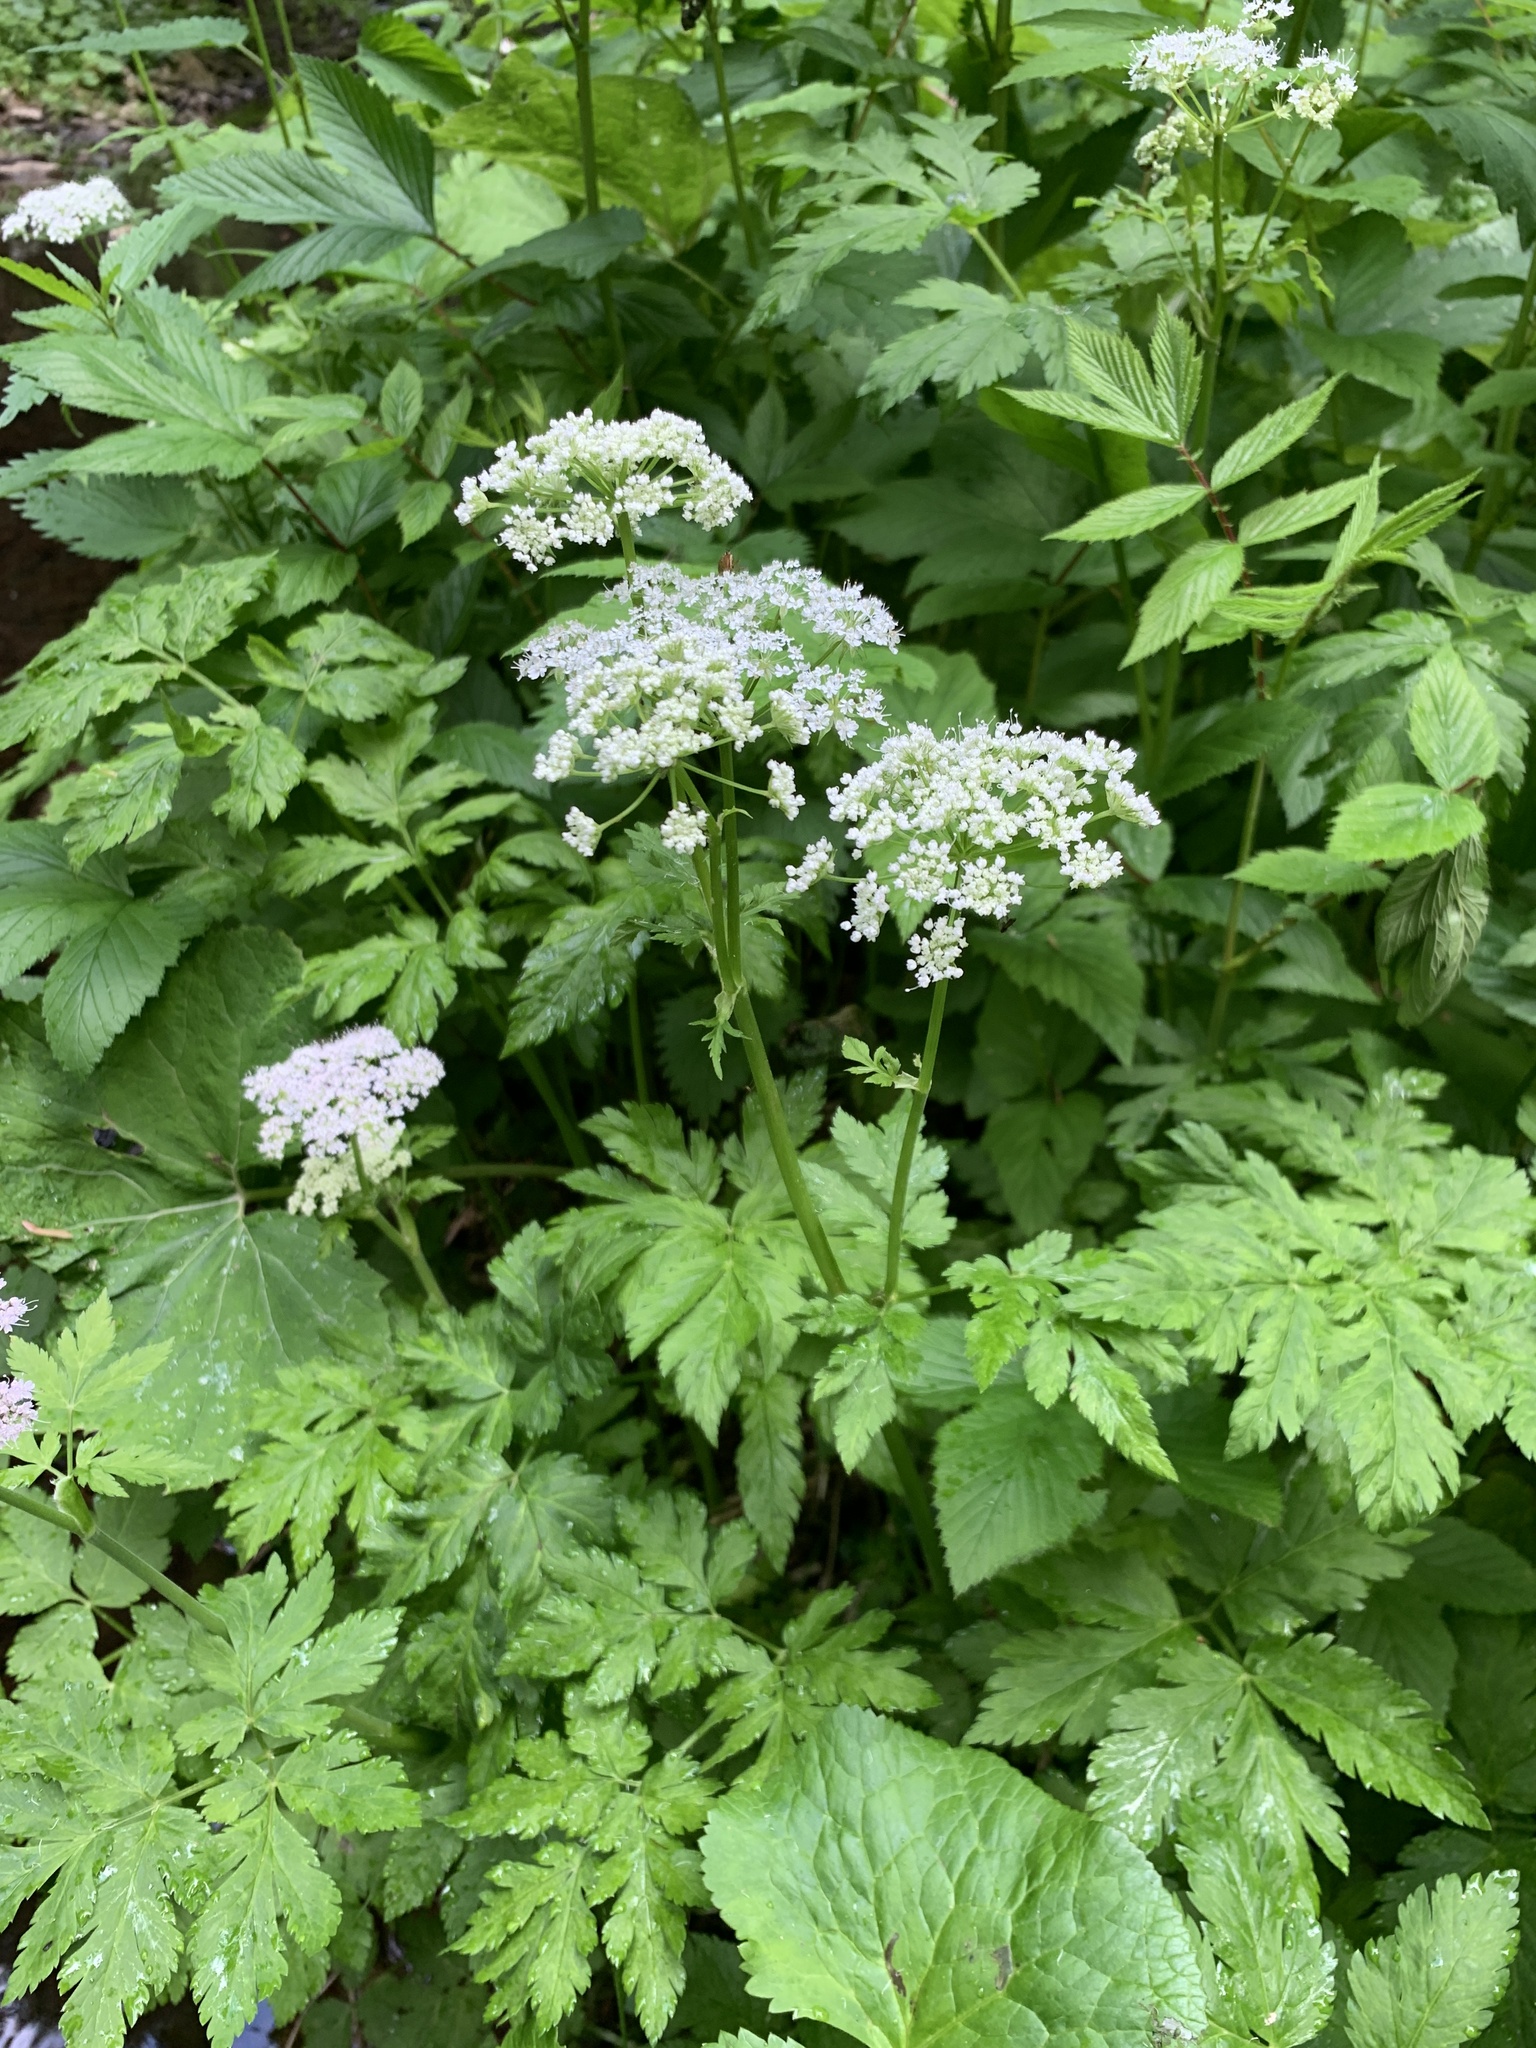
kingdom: Plantae
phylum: Tracheophyta
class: Magnoliopsida
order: Apiales
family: Apiaceae
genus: Chaerophyllum
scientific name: Chaerophyllum hirsutum
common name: Hairy chervil
